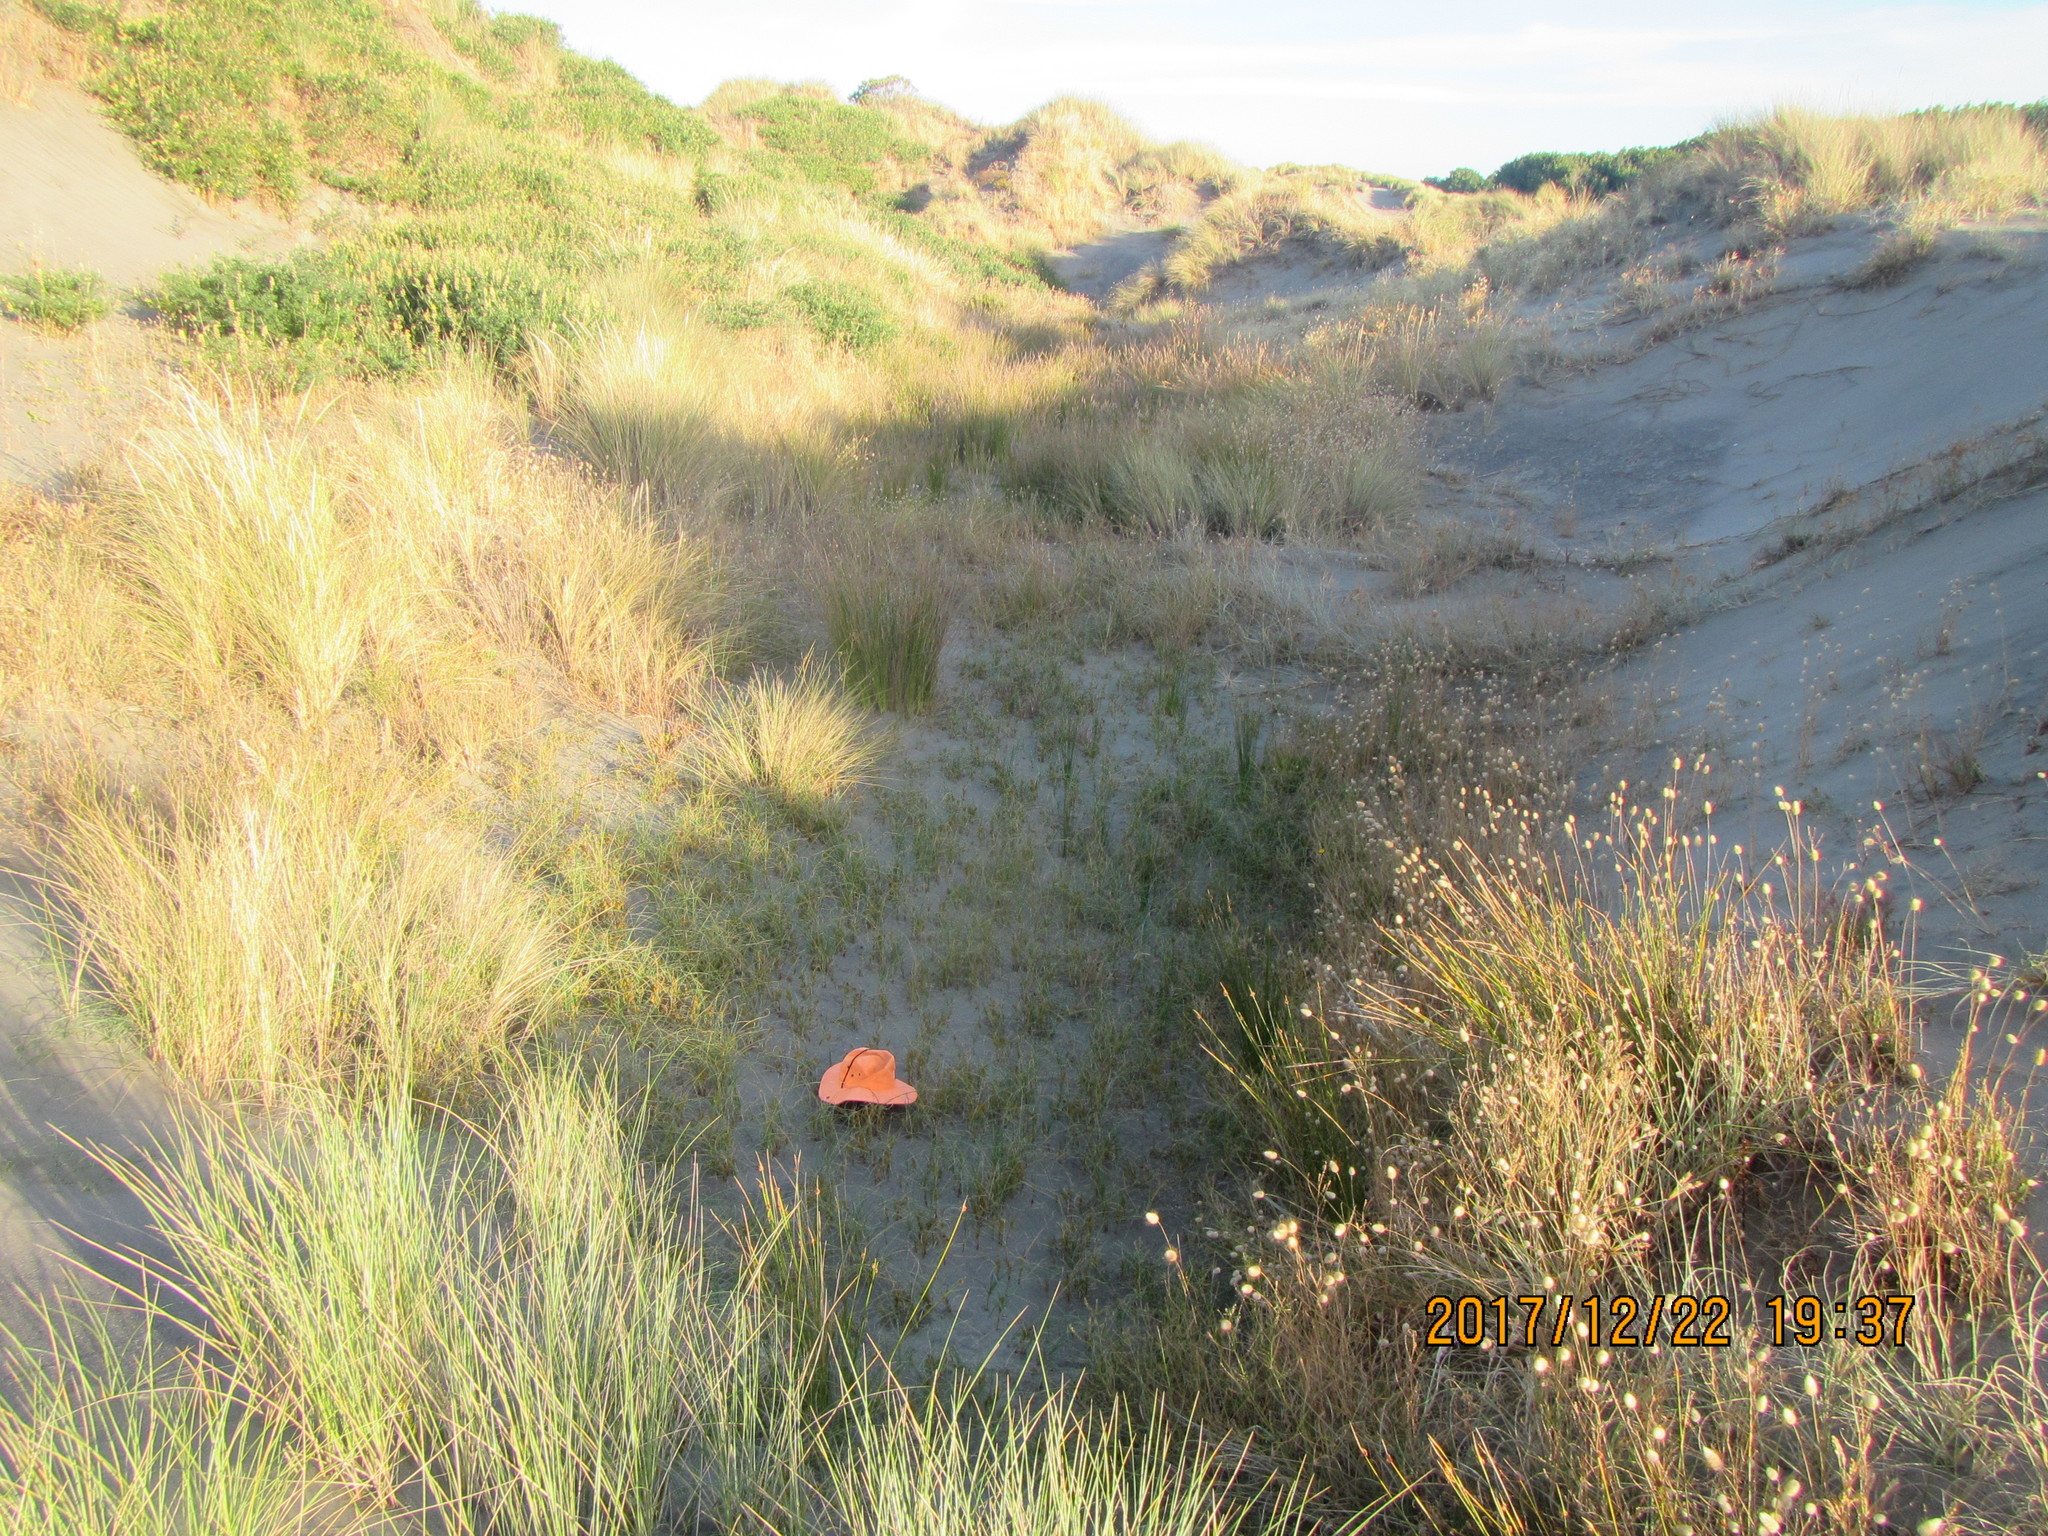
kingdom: Plantae
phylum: Tracheophyta
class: Liliopsida
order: Poales
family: Cyperaceae
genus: Carex
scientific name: Carex pumila
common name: Dwarf sedge
